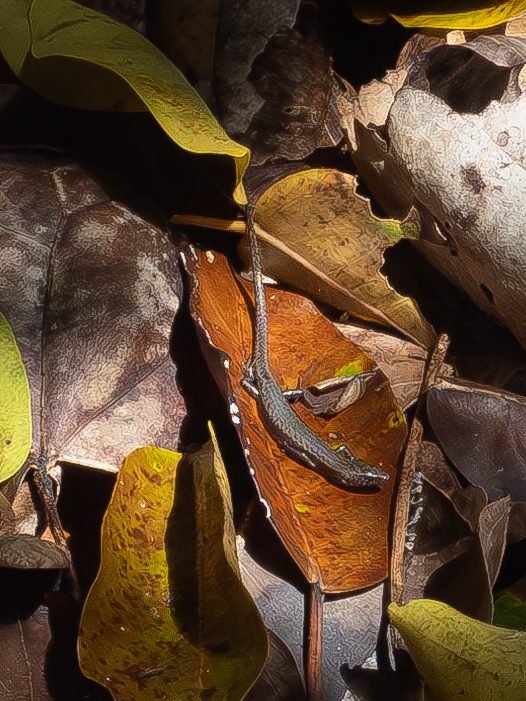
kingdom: Animalia
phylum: Chordata
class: Squamata
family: Scincidae
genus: Caledoniscincus
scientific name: Caledoniscincus austrocaledonicus
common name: Common litter skink
